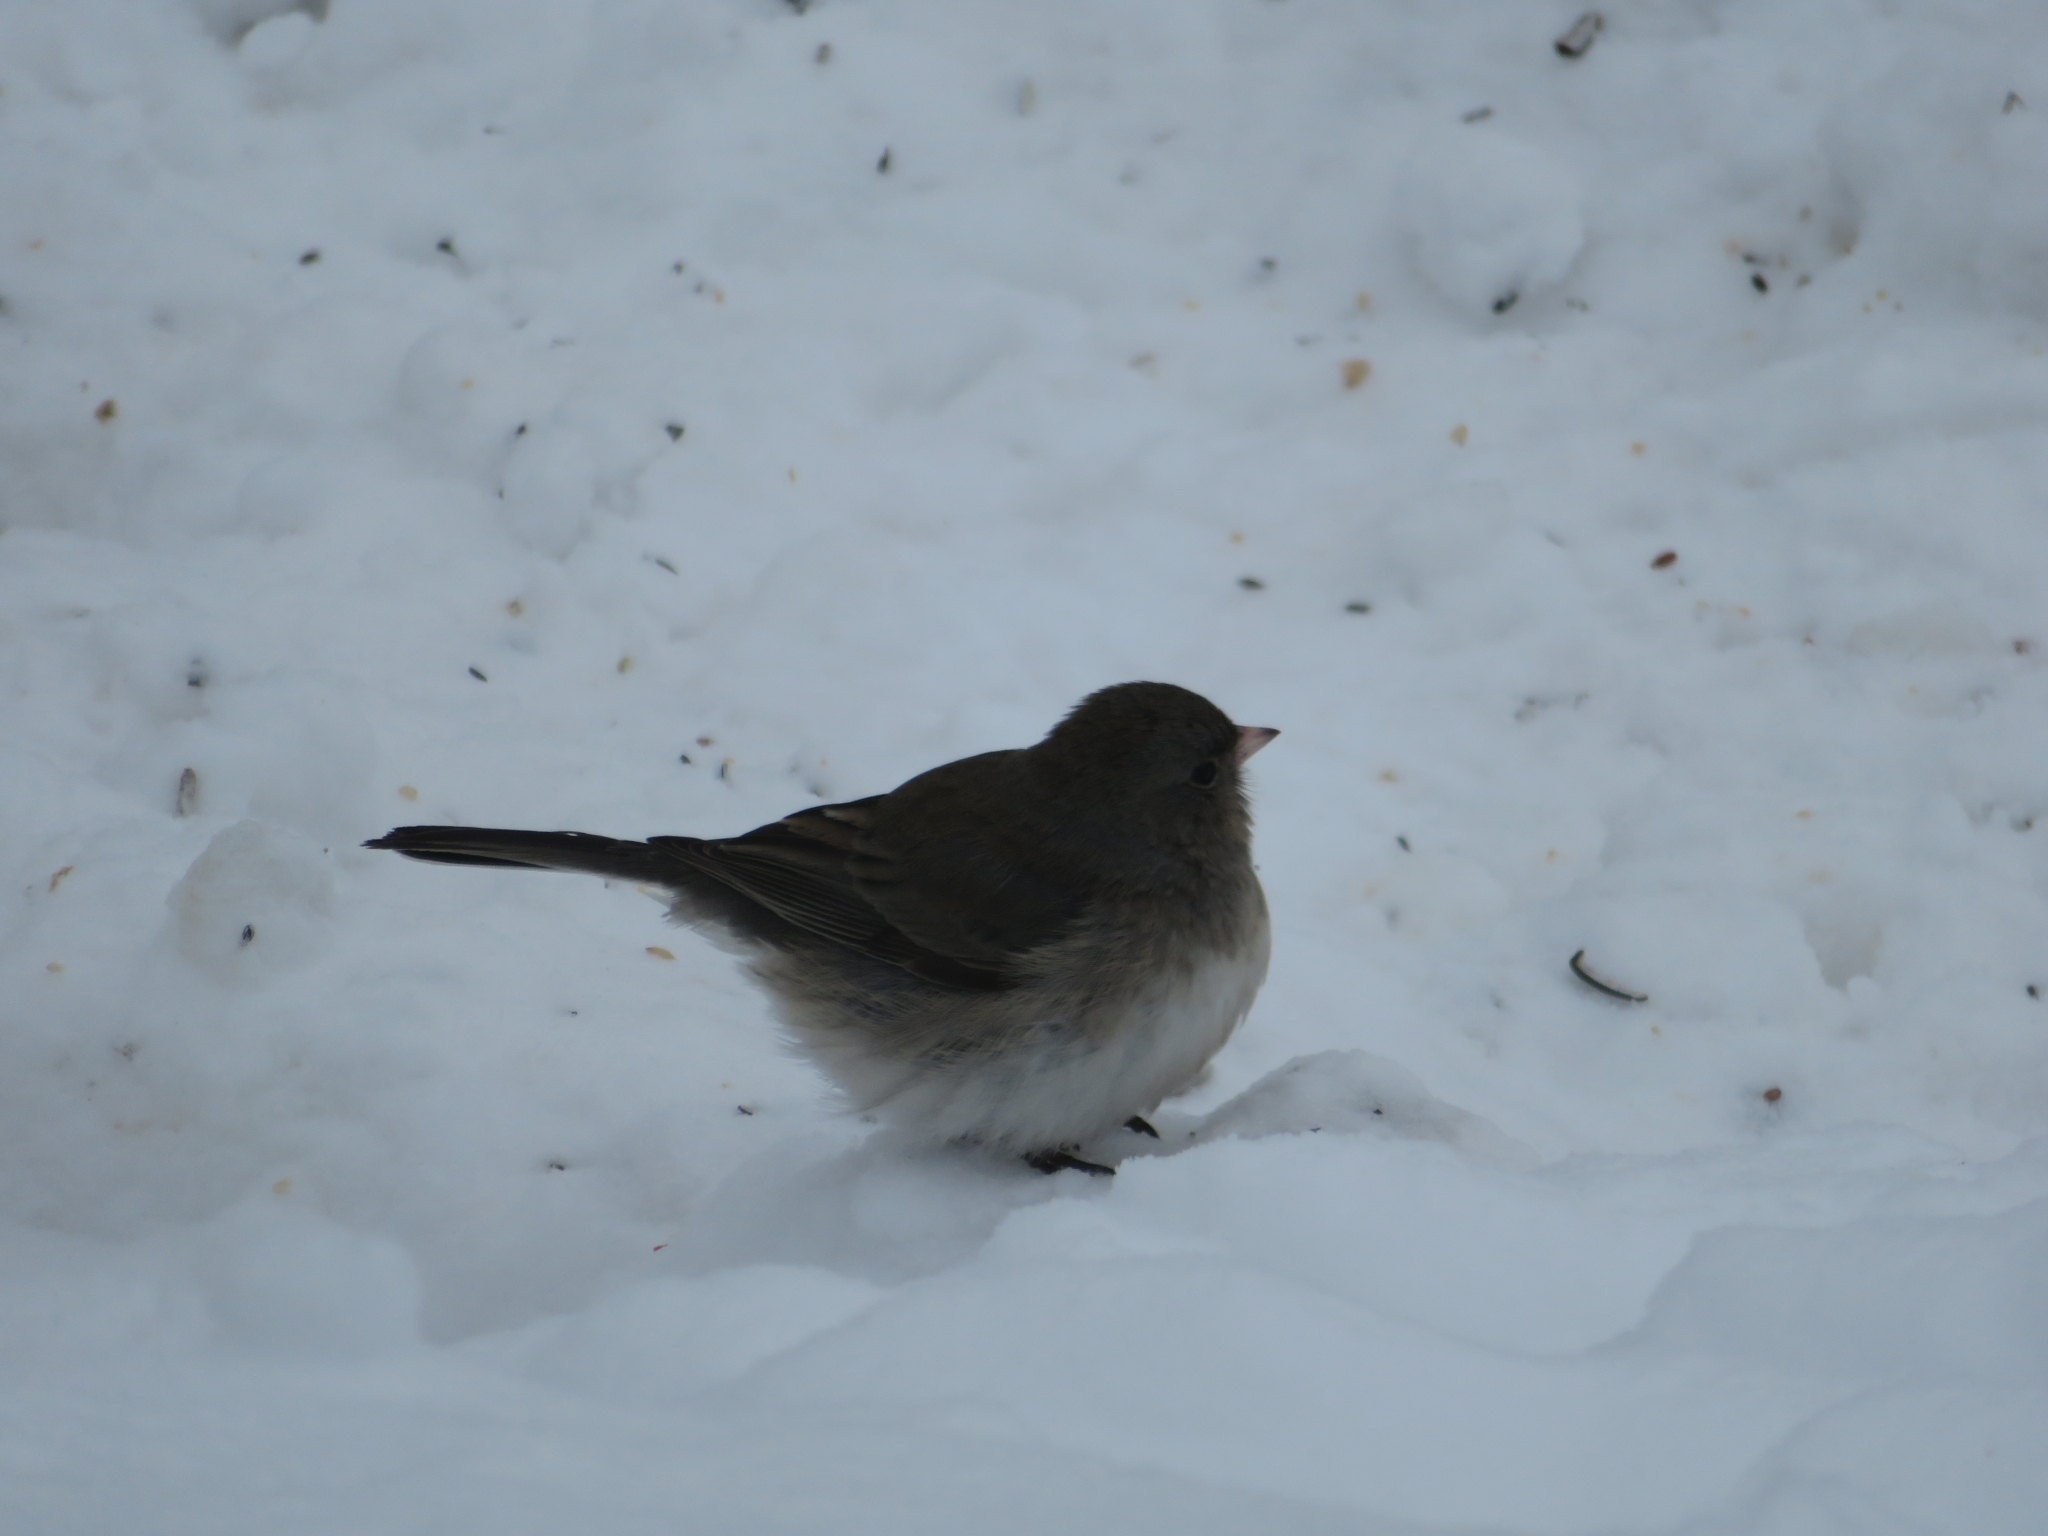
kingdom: Animalia
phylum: Chordata
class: Aves
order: Passeriformes
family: Passerellidae
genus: Junco
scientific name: Junco hyemalis
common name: Dark-eyed junco
